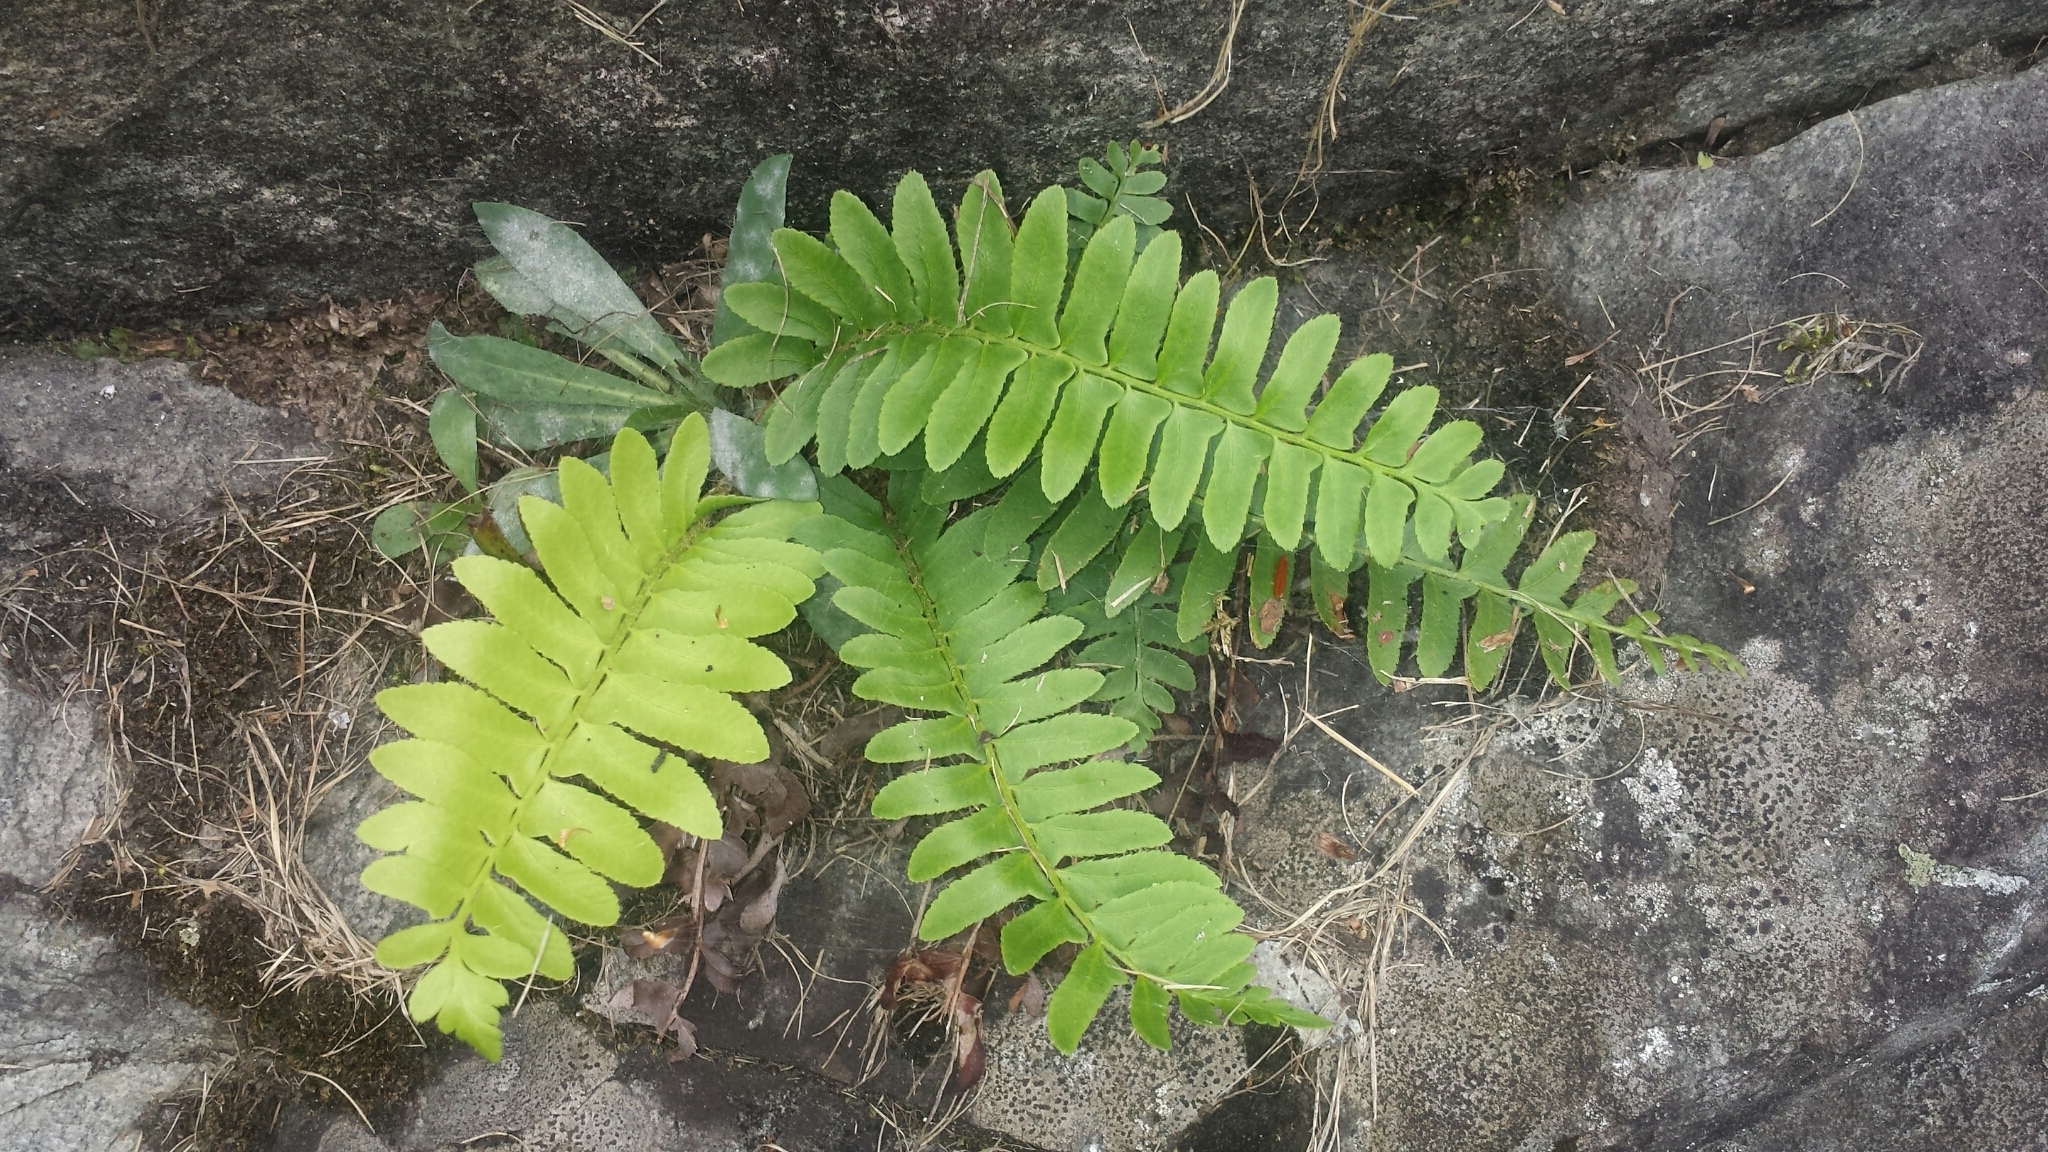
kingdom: Plantae
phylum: Tracheophyta
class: Polypodiopsida
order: Polypodiales
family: Dryopteridaceae
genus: Polystichum
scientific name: Polystichum acrostichoides
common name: Christmas fern
